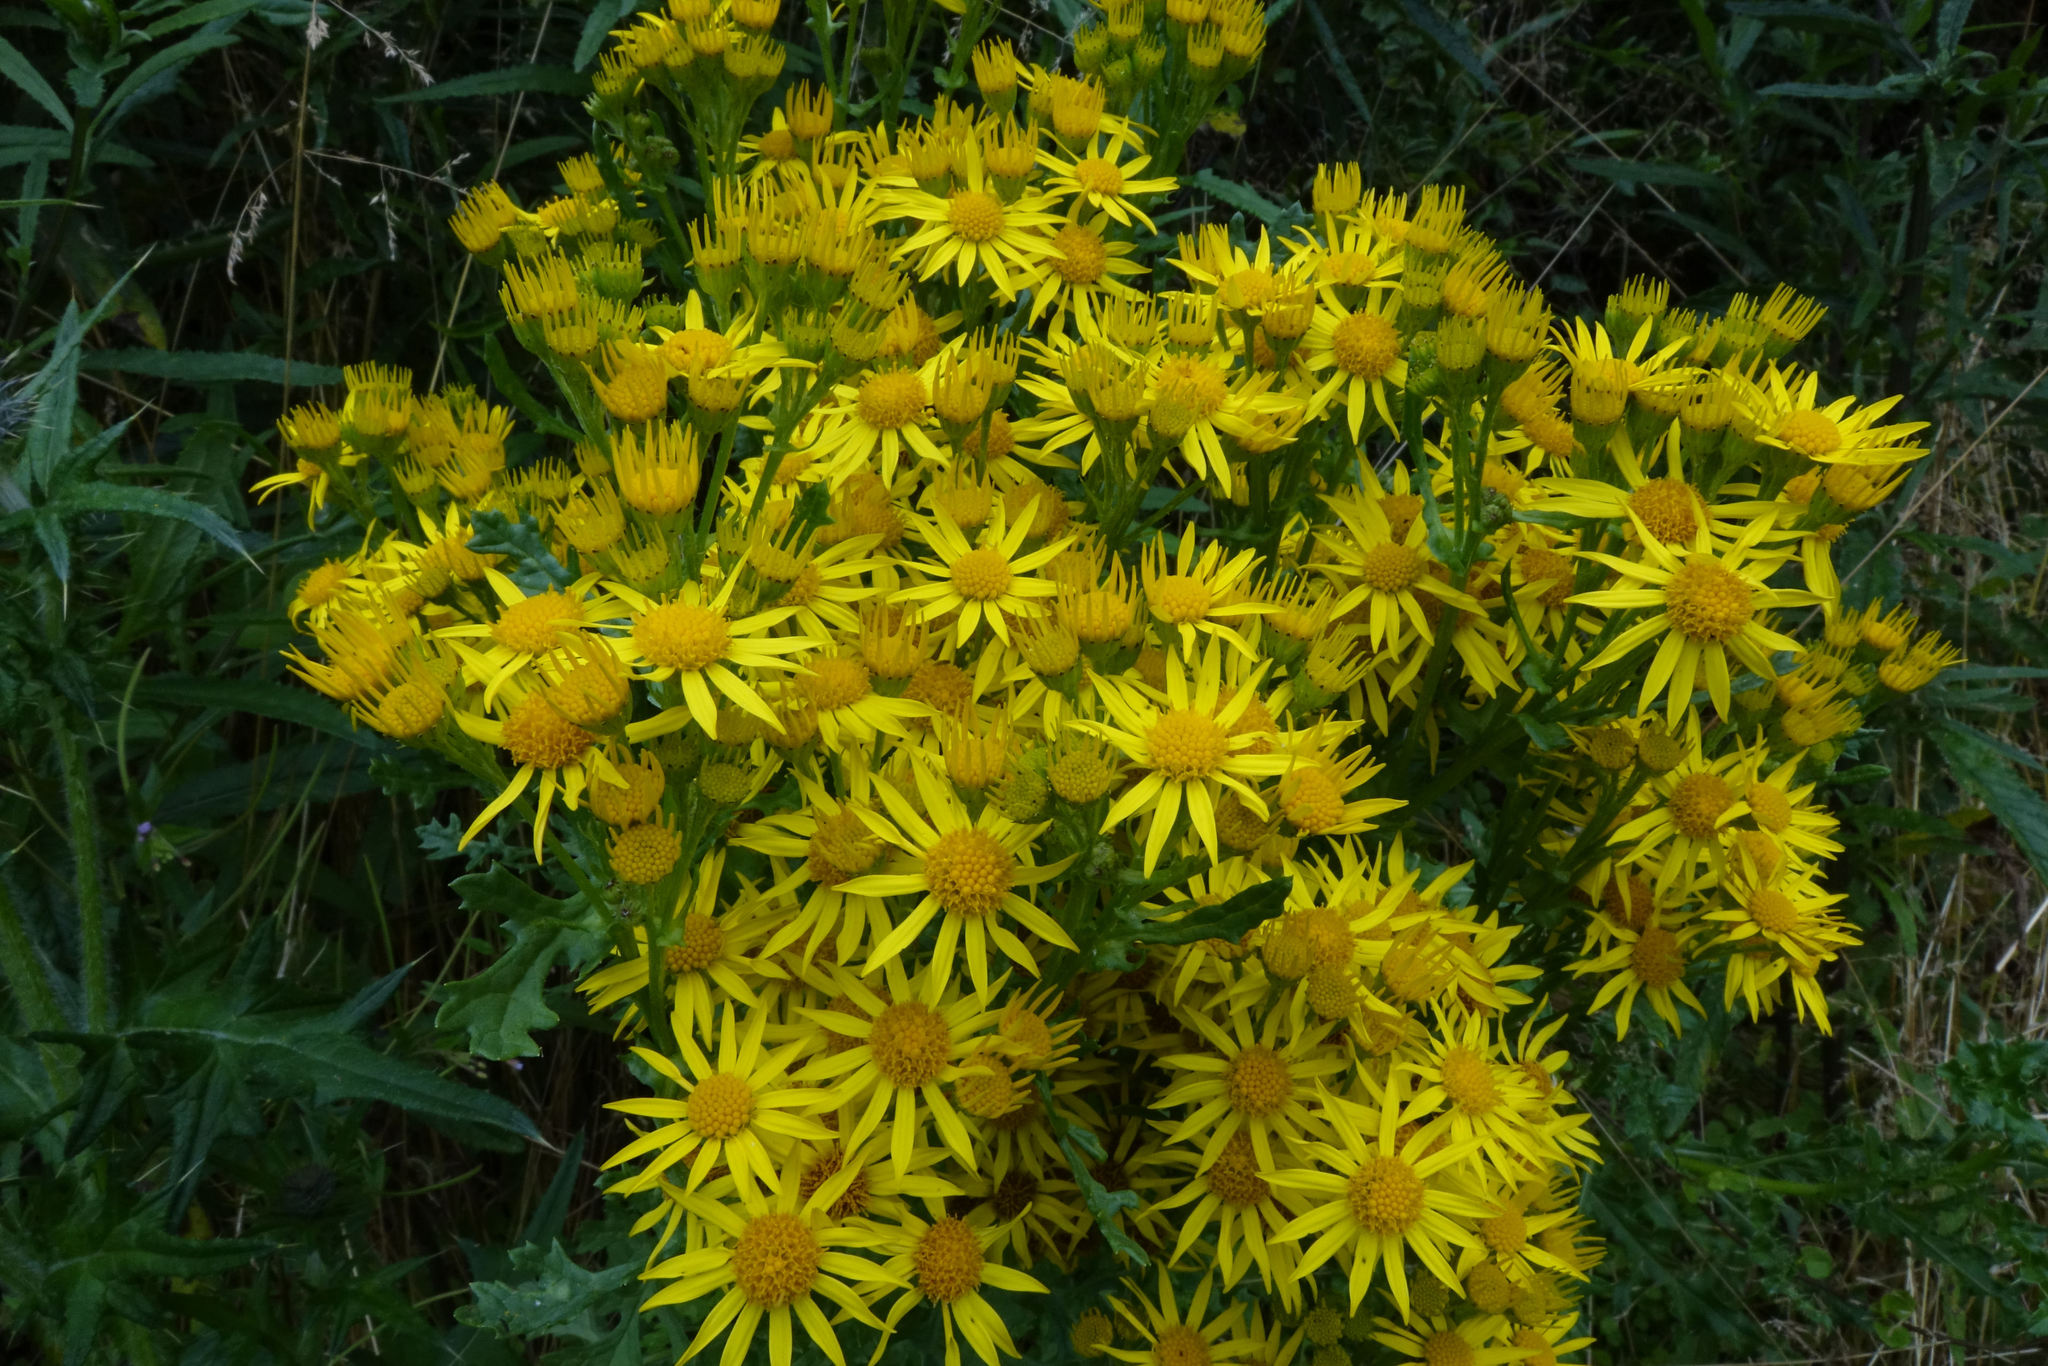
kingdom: Plantae
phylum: Tracheophyta
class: Magnoliopsida
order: Asterales
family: Asteraceae
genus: Jacobaea
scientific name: Jacobaea vulgaris
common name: Stinking willie
